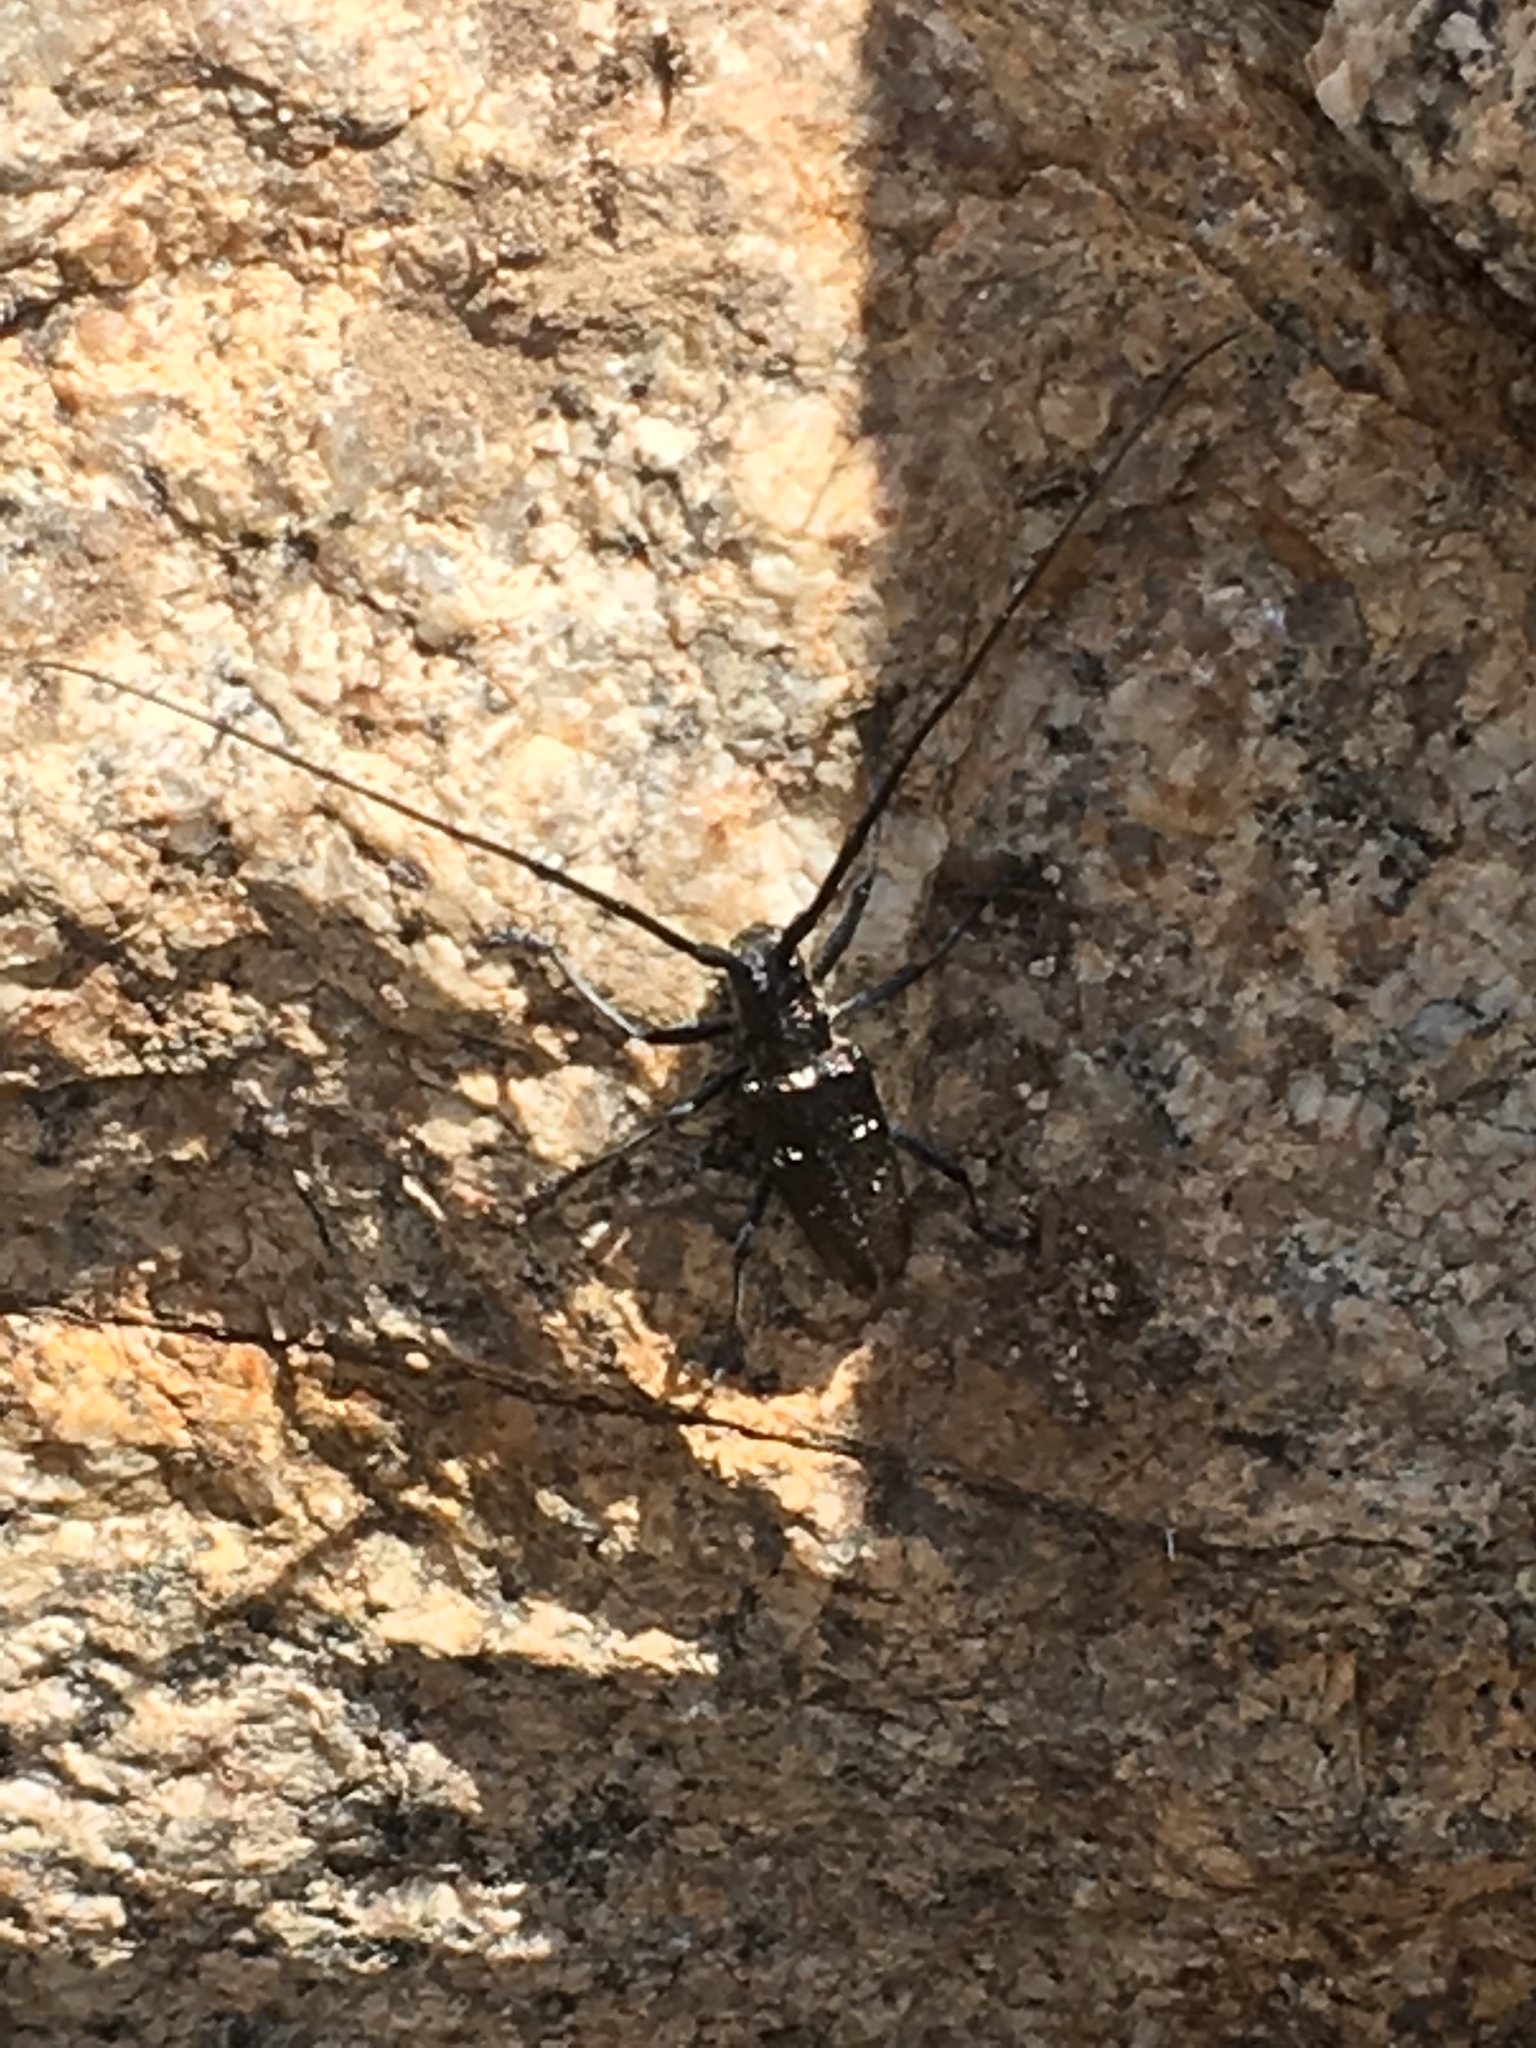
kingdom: Animalia
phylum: Arthropoda
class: Insecta
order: Coleoptera
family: Cerambycidae
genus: Monochamus
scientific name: Monochamus scutellatus
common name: White-spotted sawyer beetle
